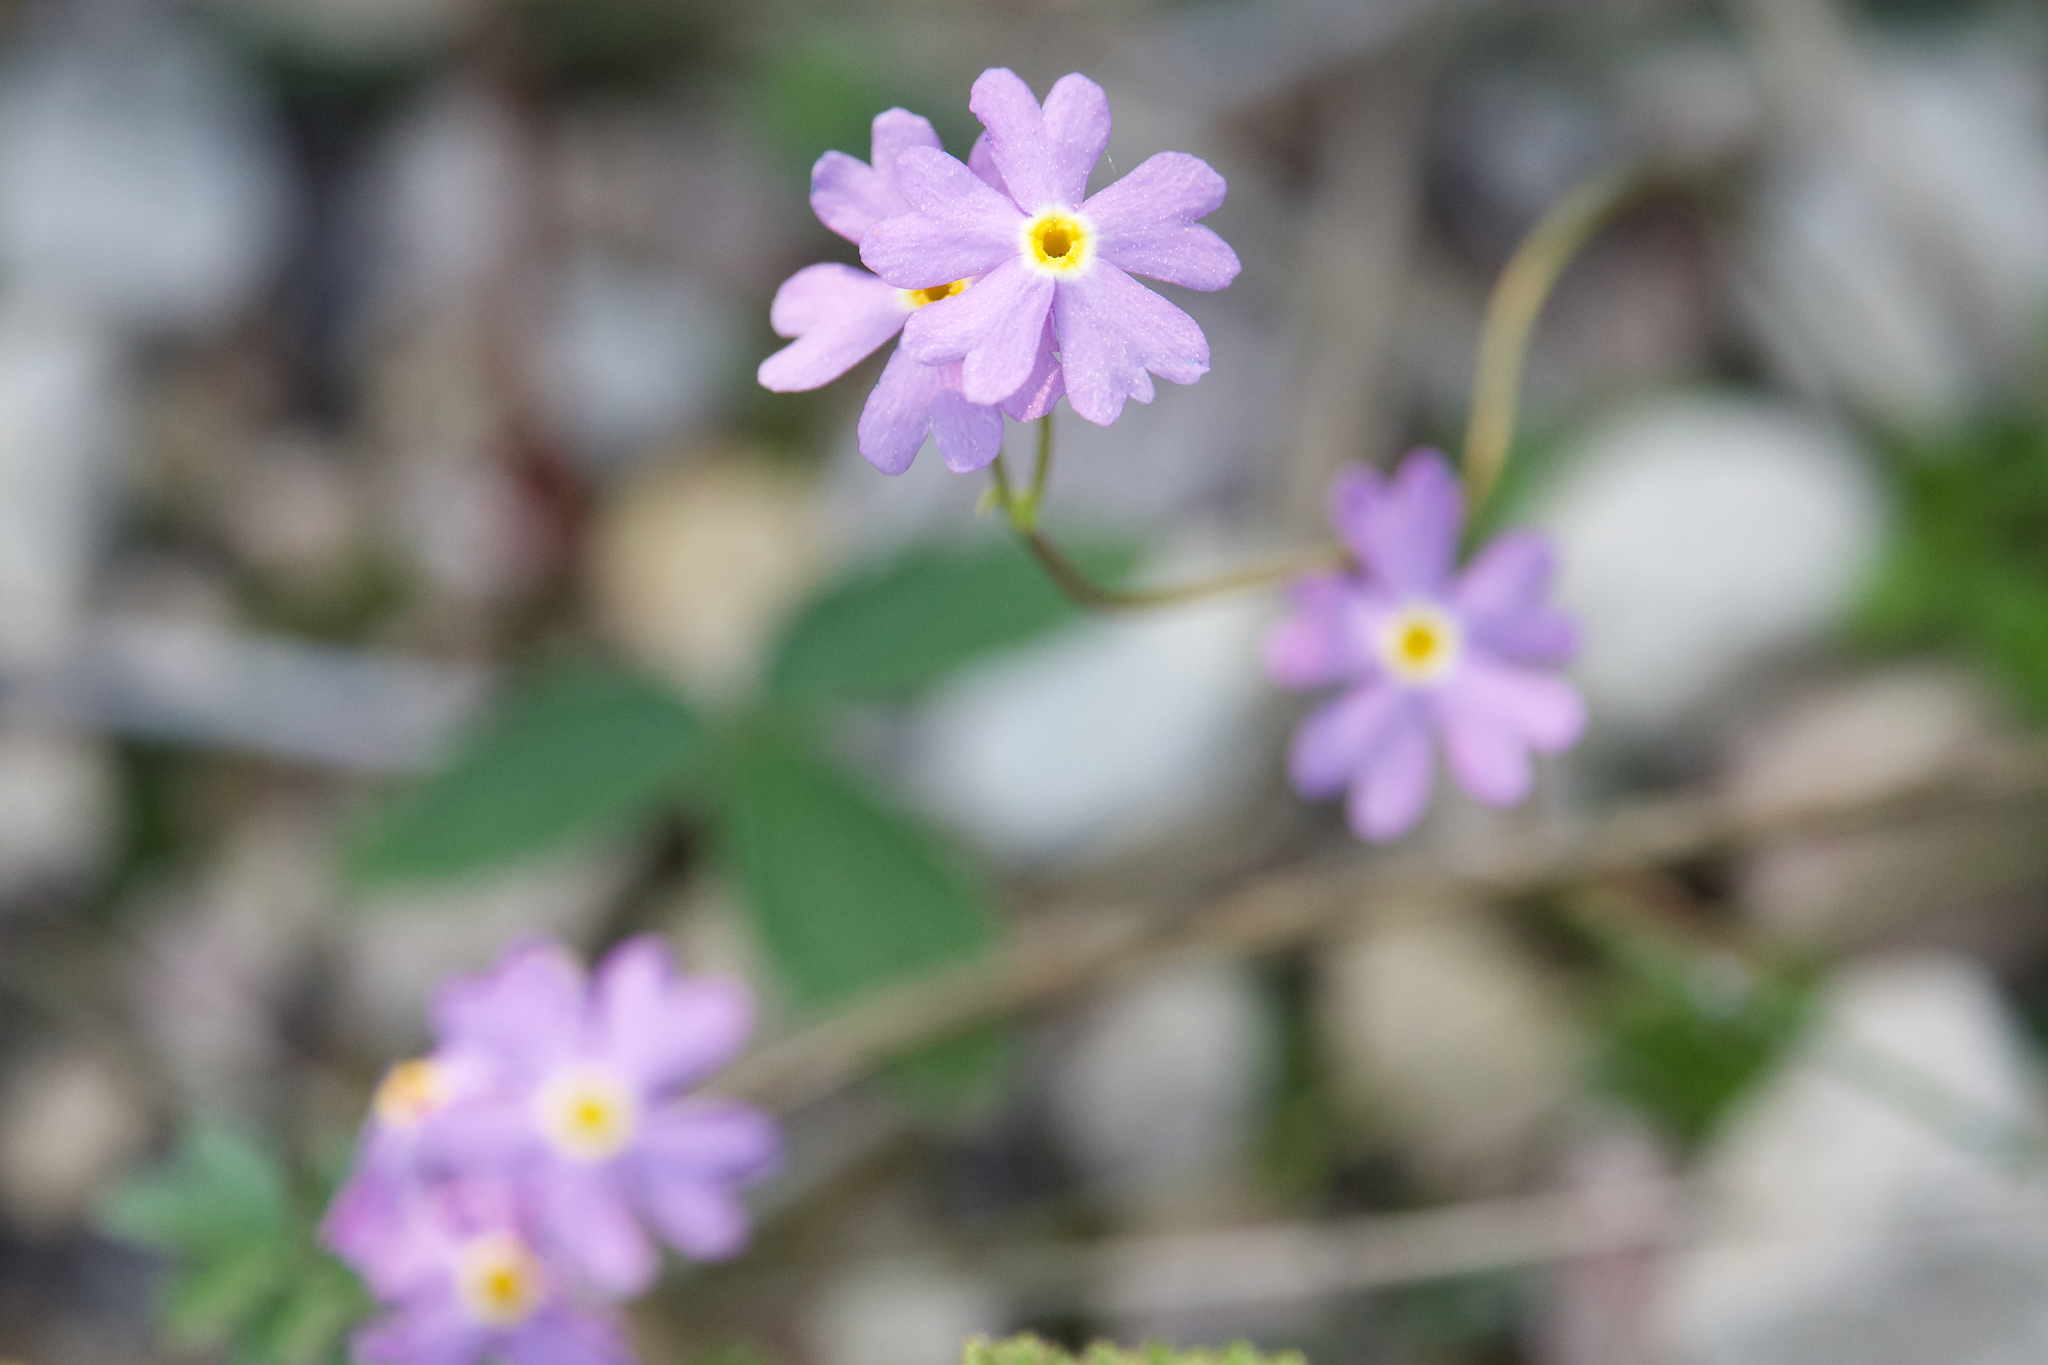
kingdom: Plantae
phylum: Tracheophyta
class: Magnoliopsida
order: Ericales
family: Primulaceae
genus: Primula
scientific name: Primula mistassinica
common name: Bird's-eye primrose
